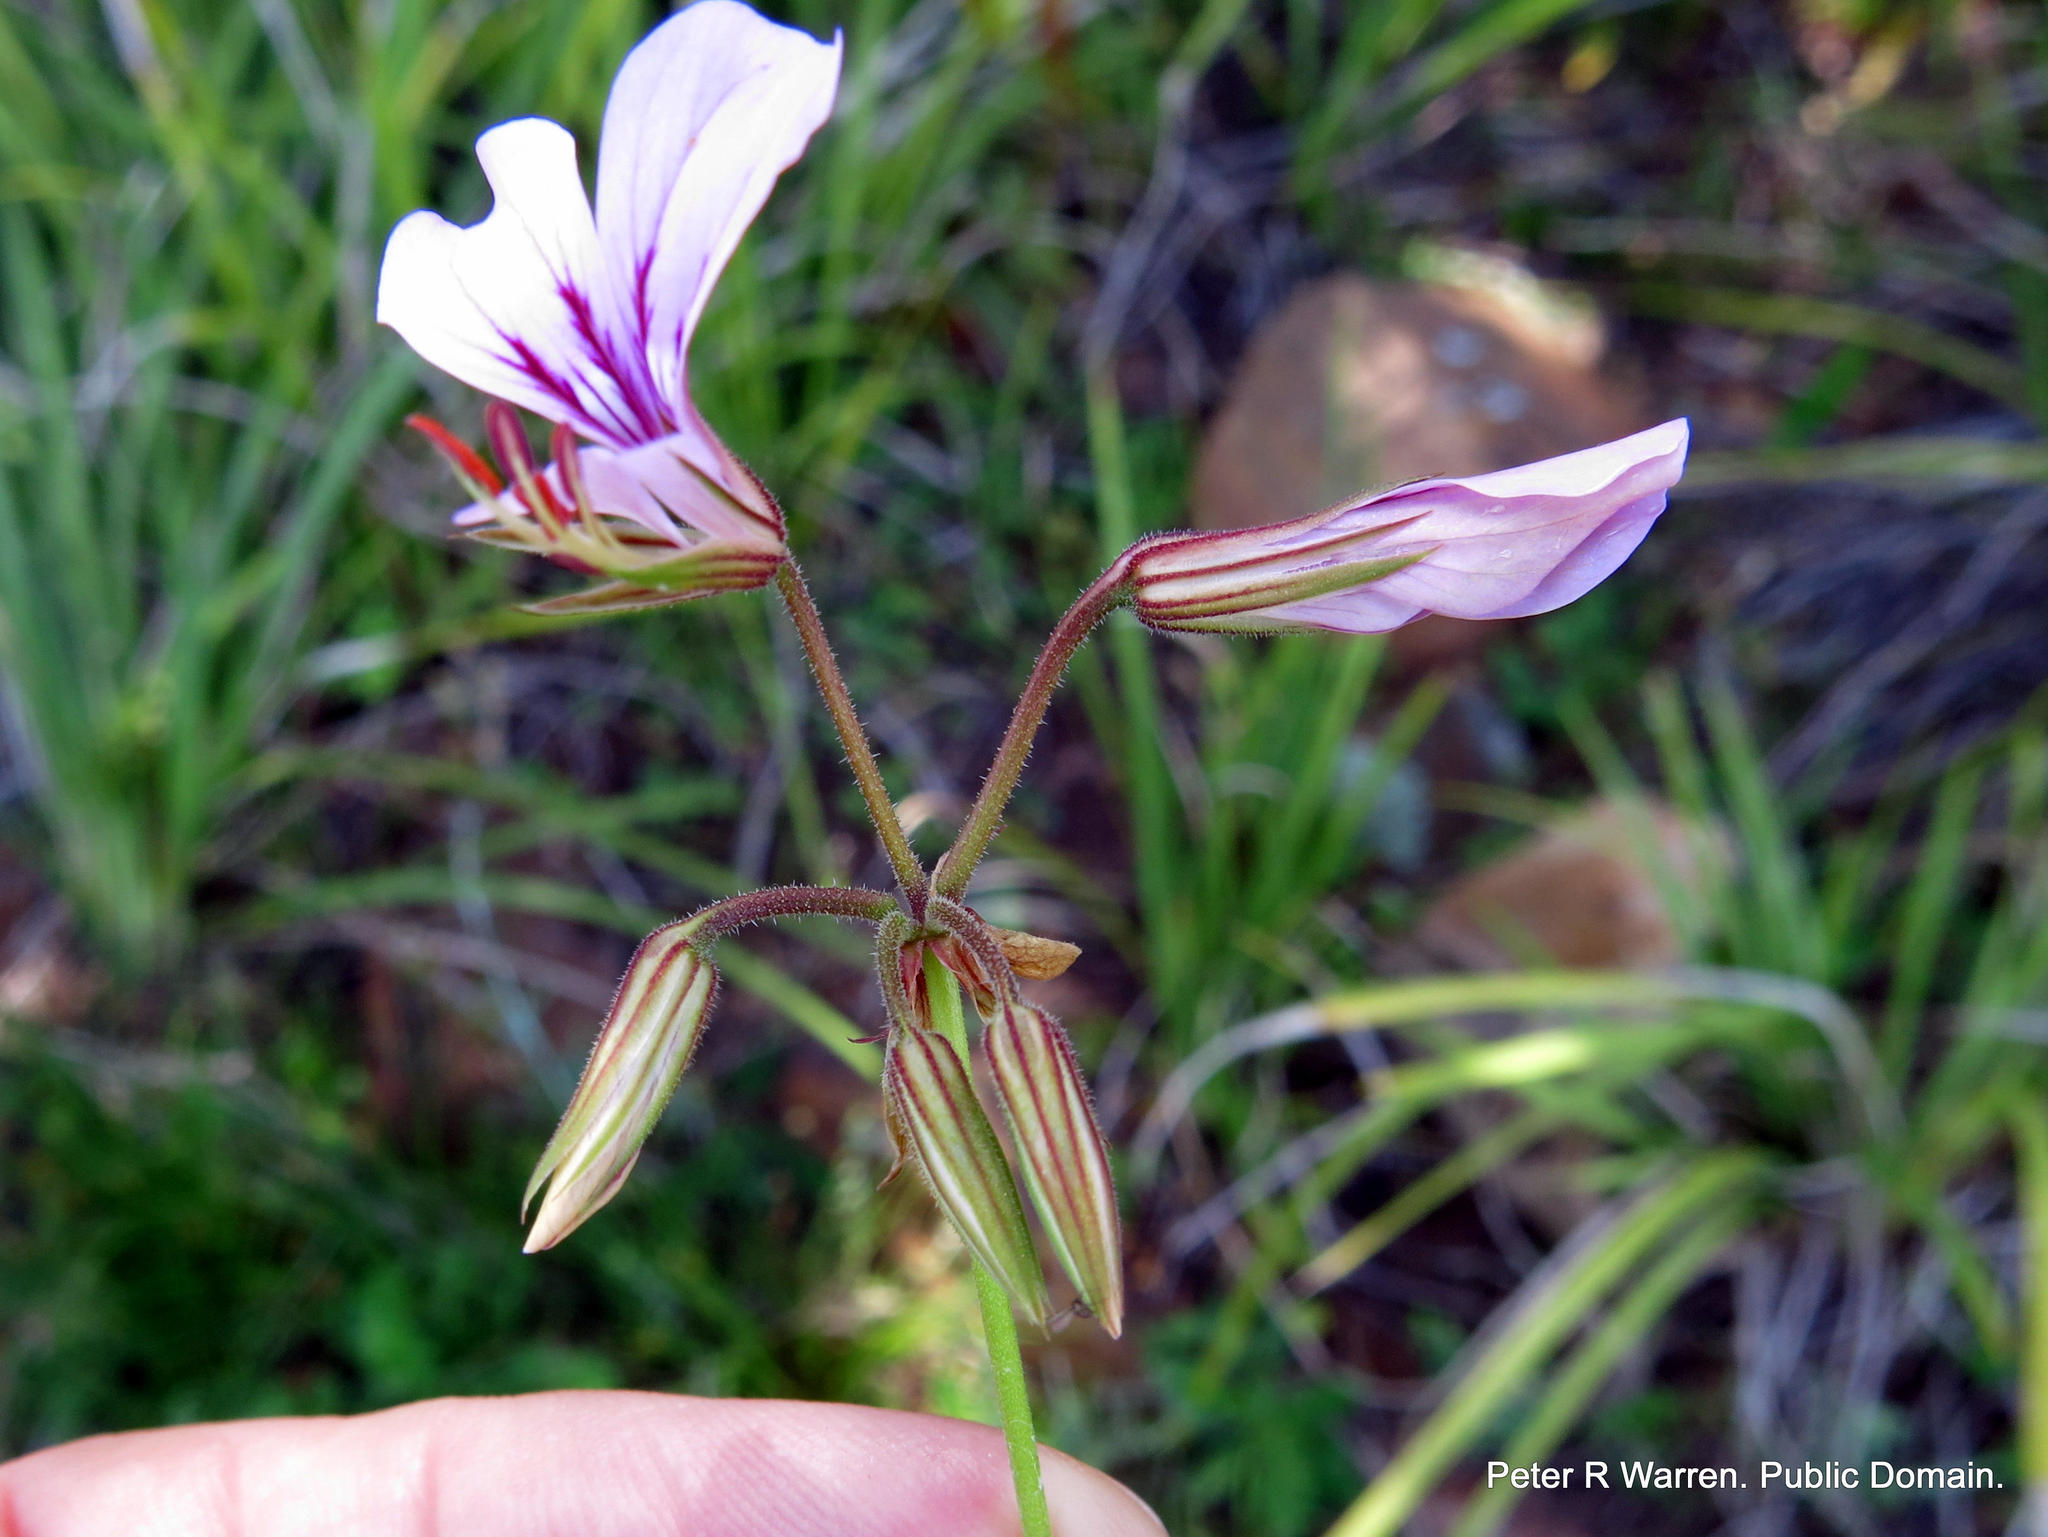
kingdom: Plantae
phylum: Tracheophyta
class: Magnoliopsida
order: Geraniales
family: Geraniaceae
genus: Pelargonium
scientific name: Pelargonium multicaule
